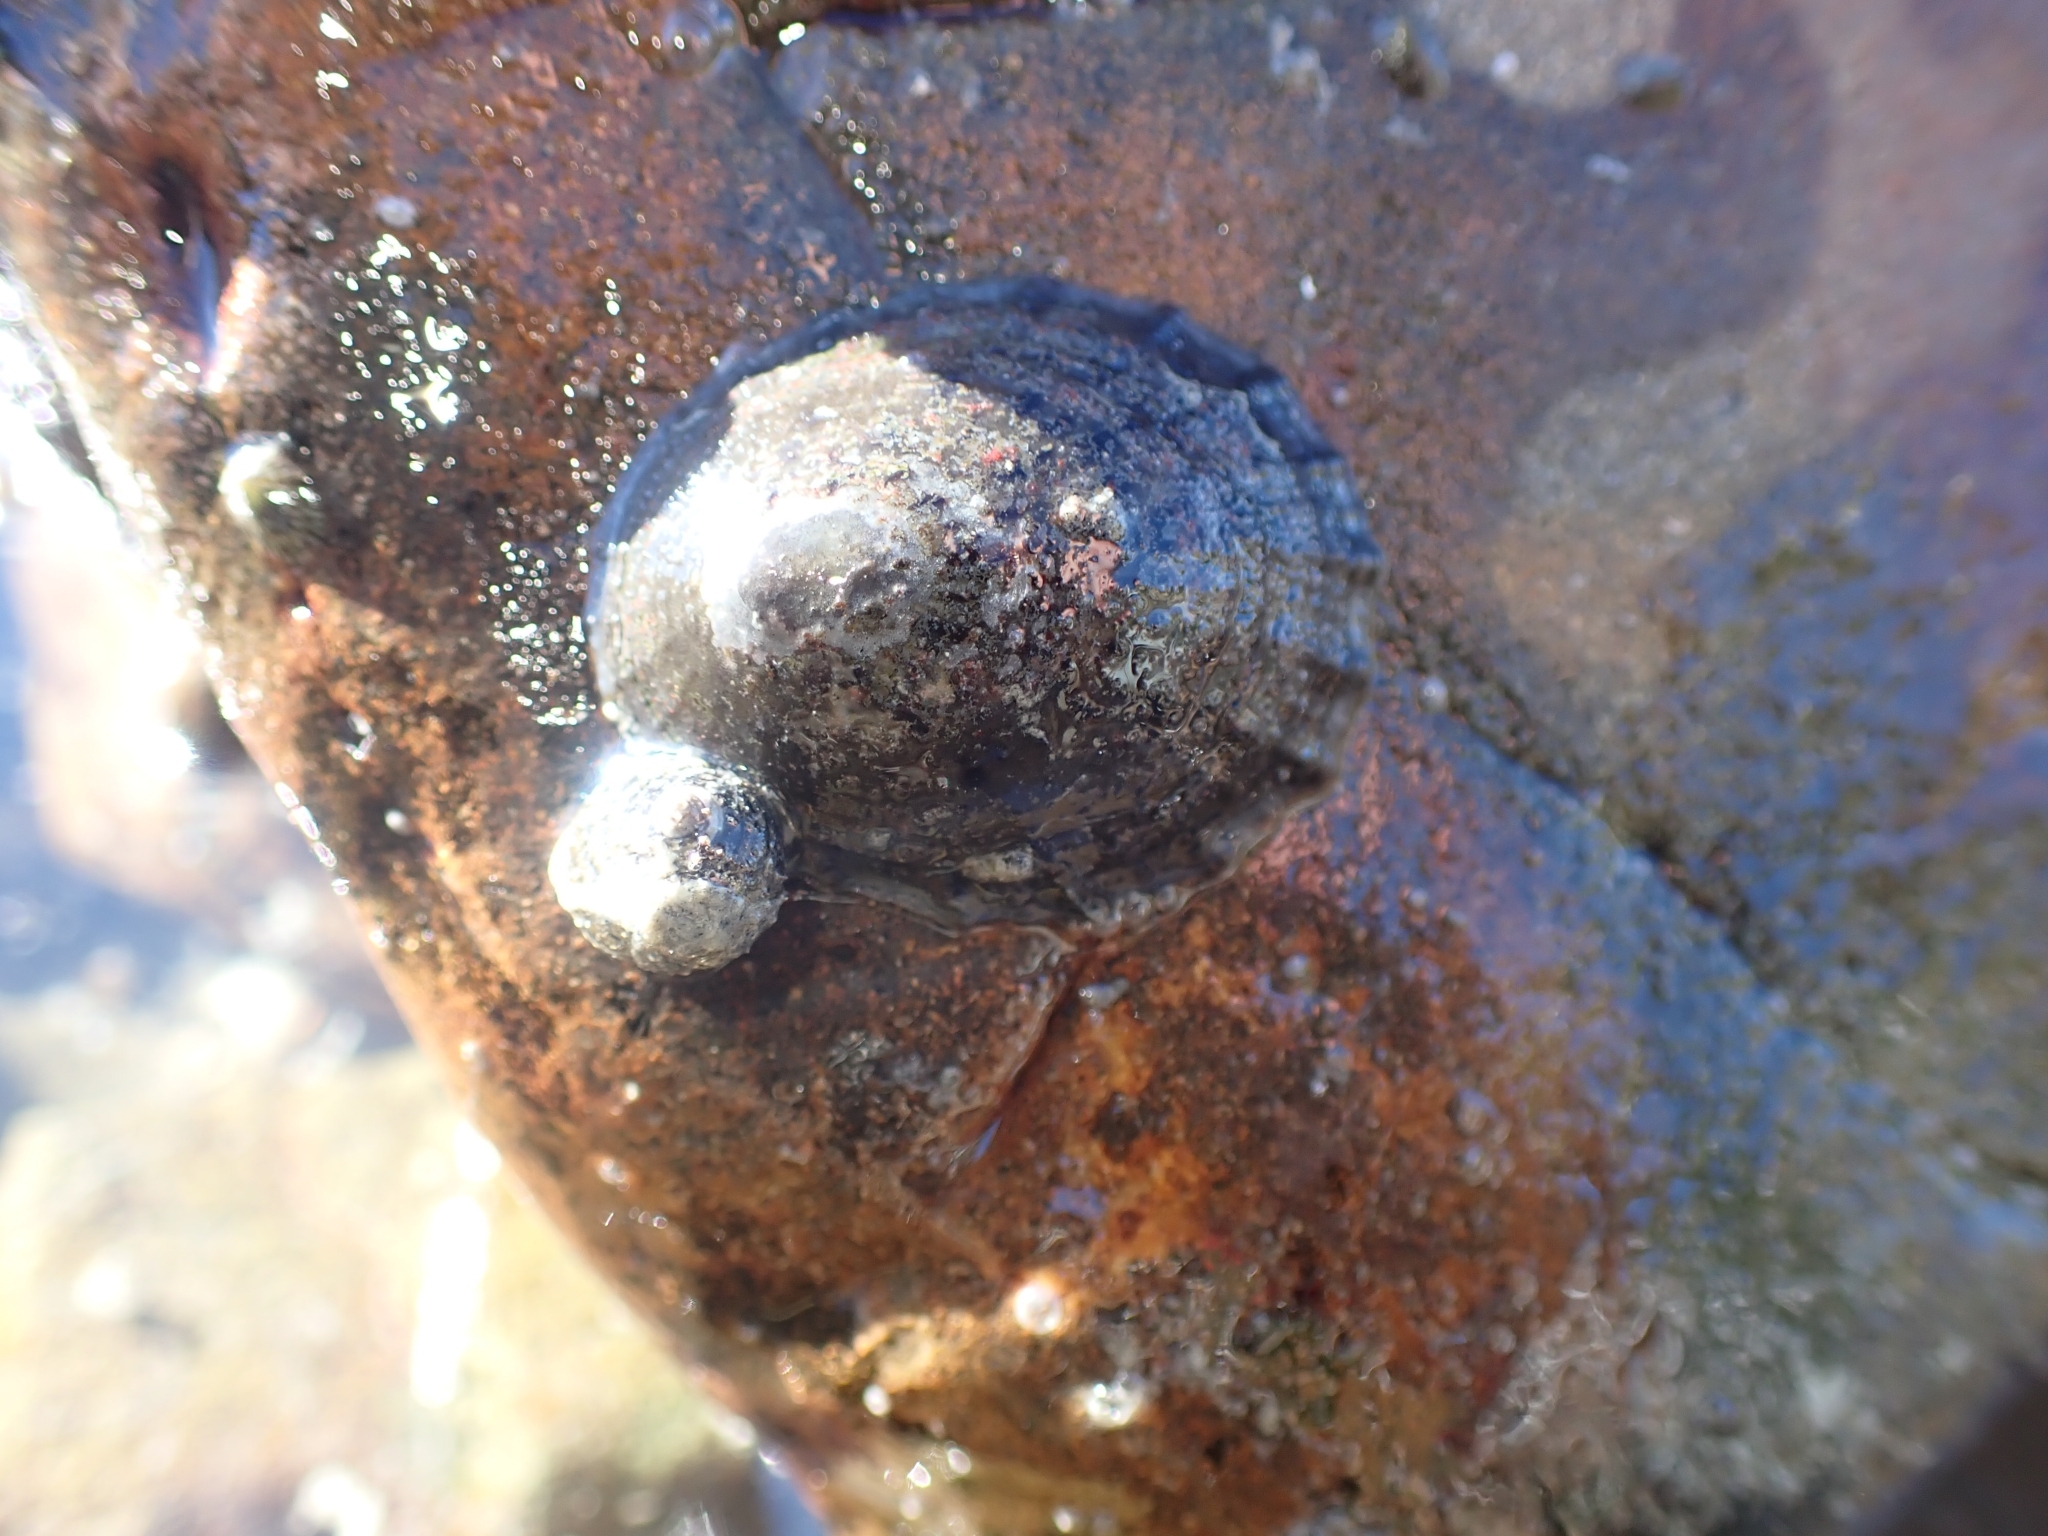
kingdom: Animalia
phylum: Mollusca
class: Gastropoda
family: Nacellidae
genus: Cellana
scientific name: Cellana radians
